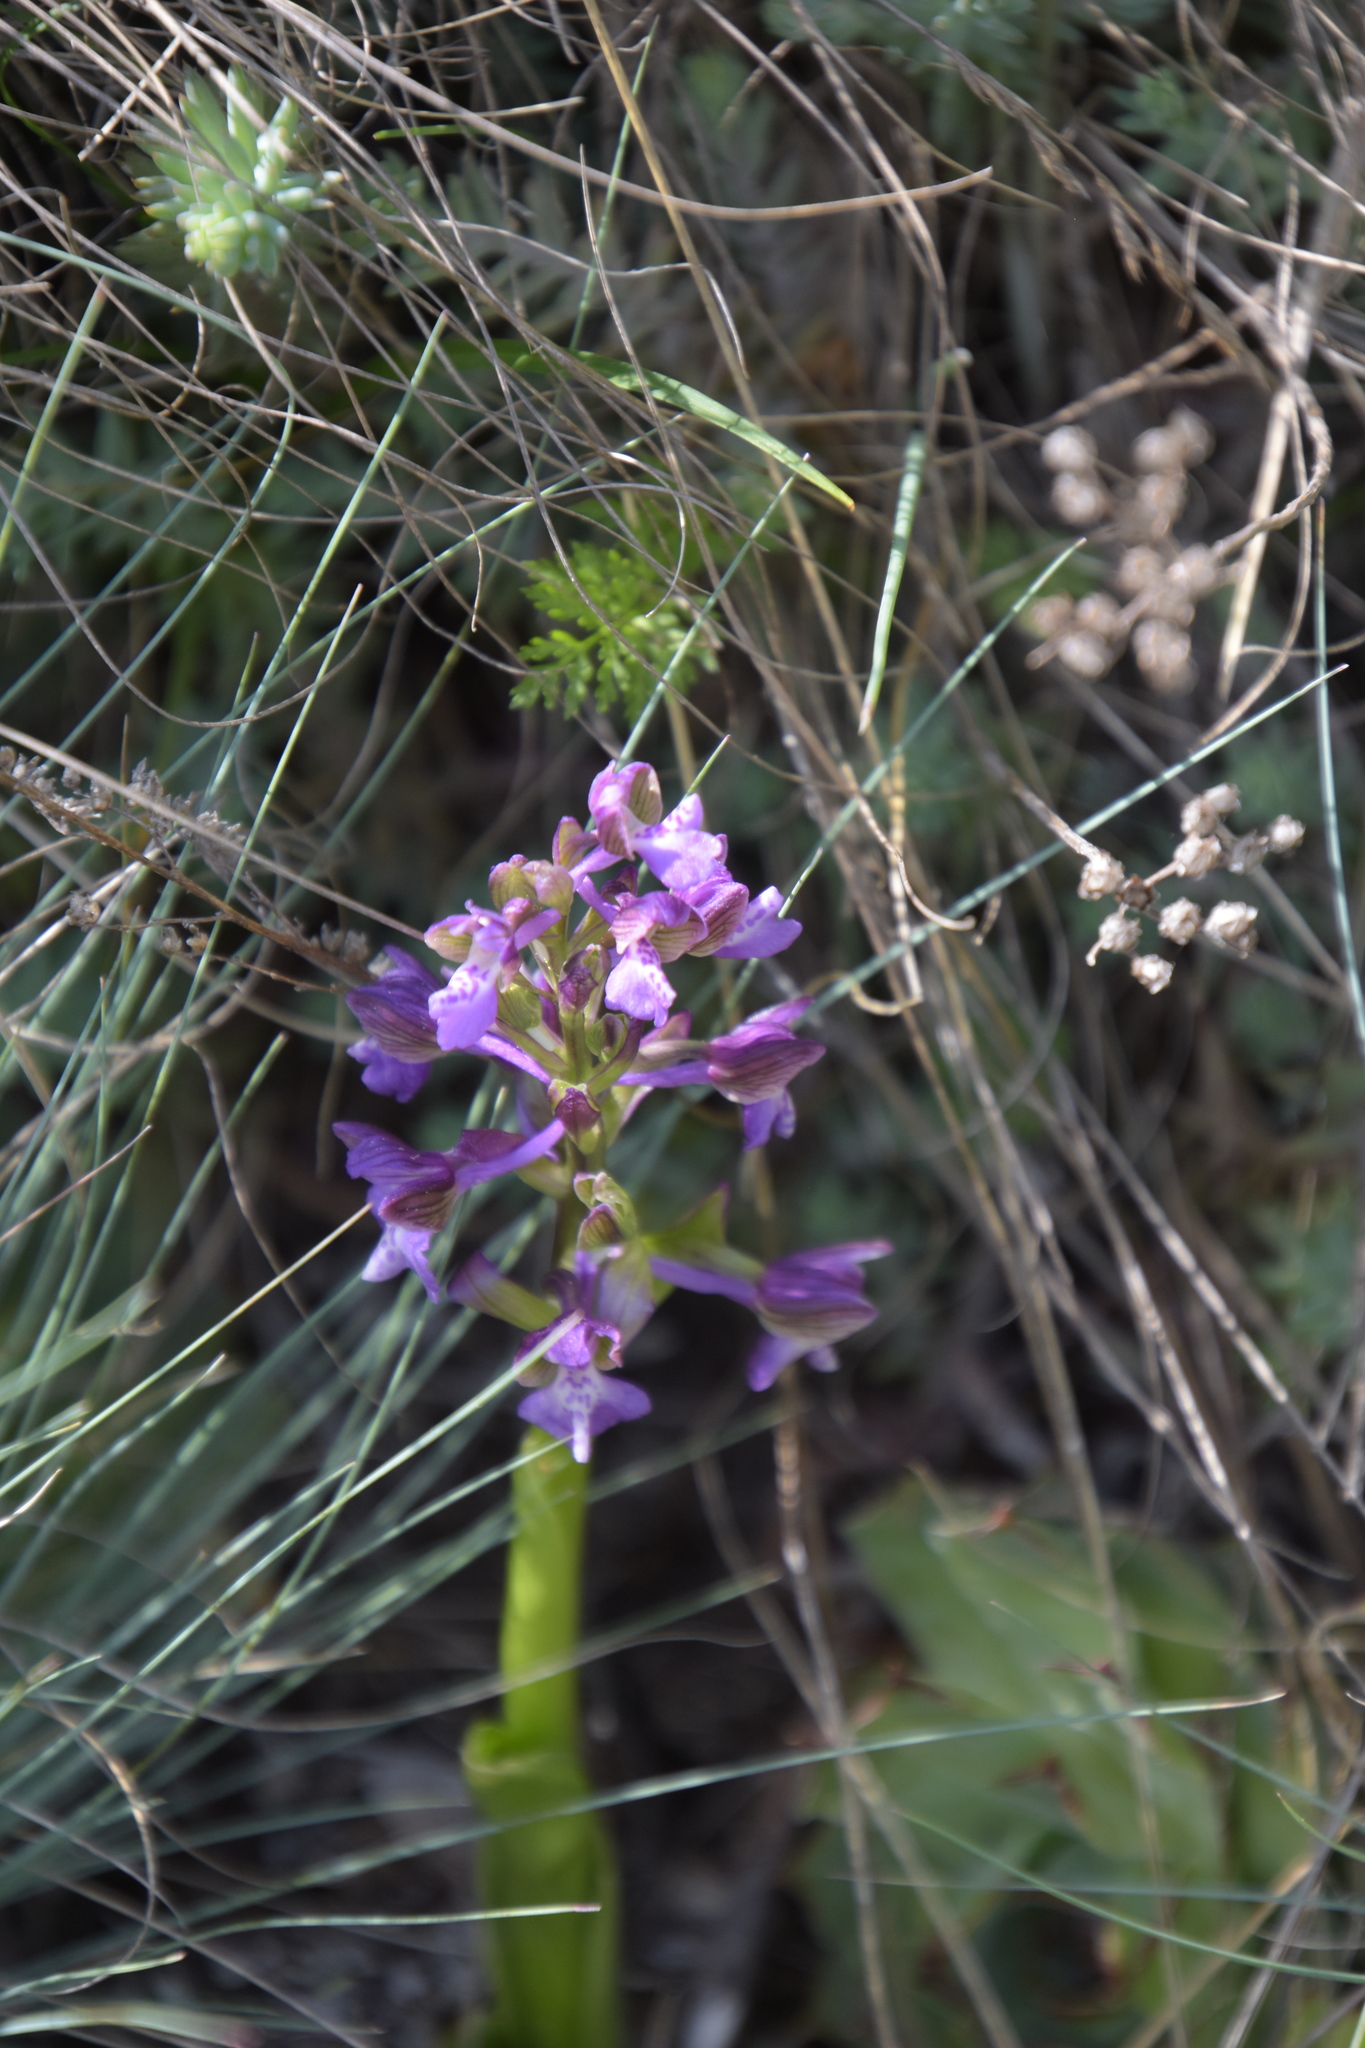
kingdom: Plantae
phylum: Tracheophyta
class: Liliopsida
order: Asparagales
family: Orchidaceae
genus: Anacamptis
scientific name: Anacamptis morio
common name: Green-winged orchid
